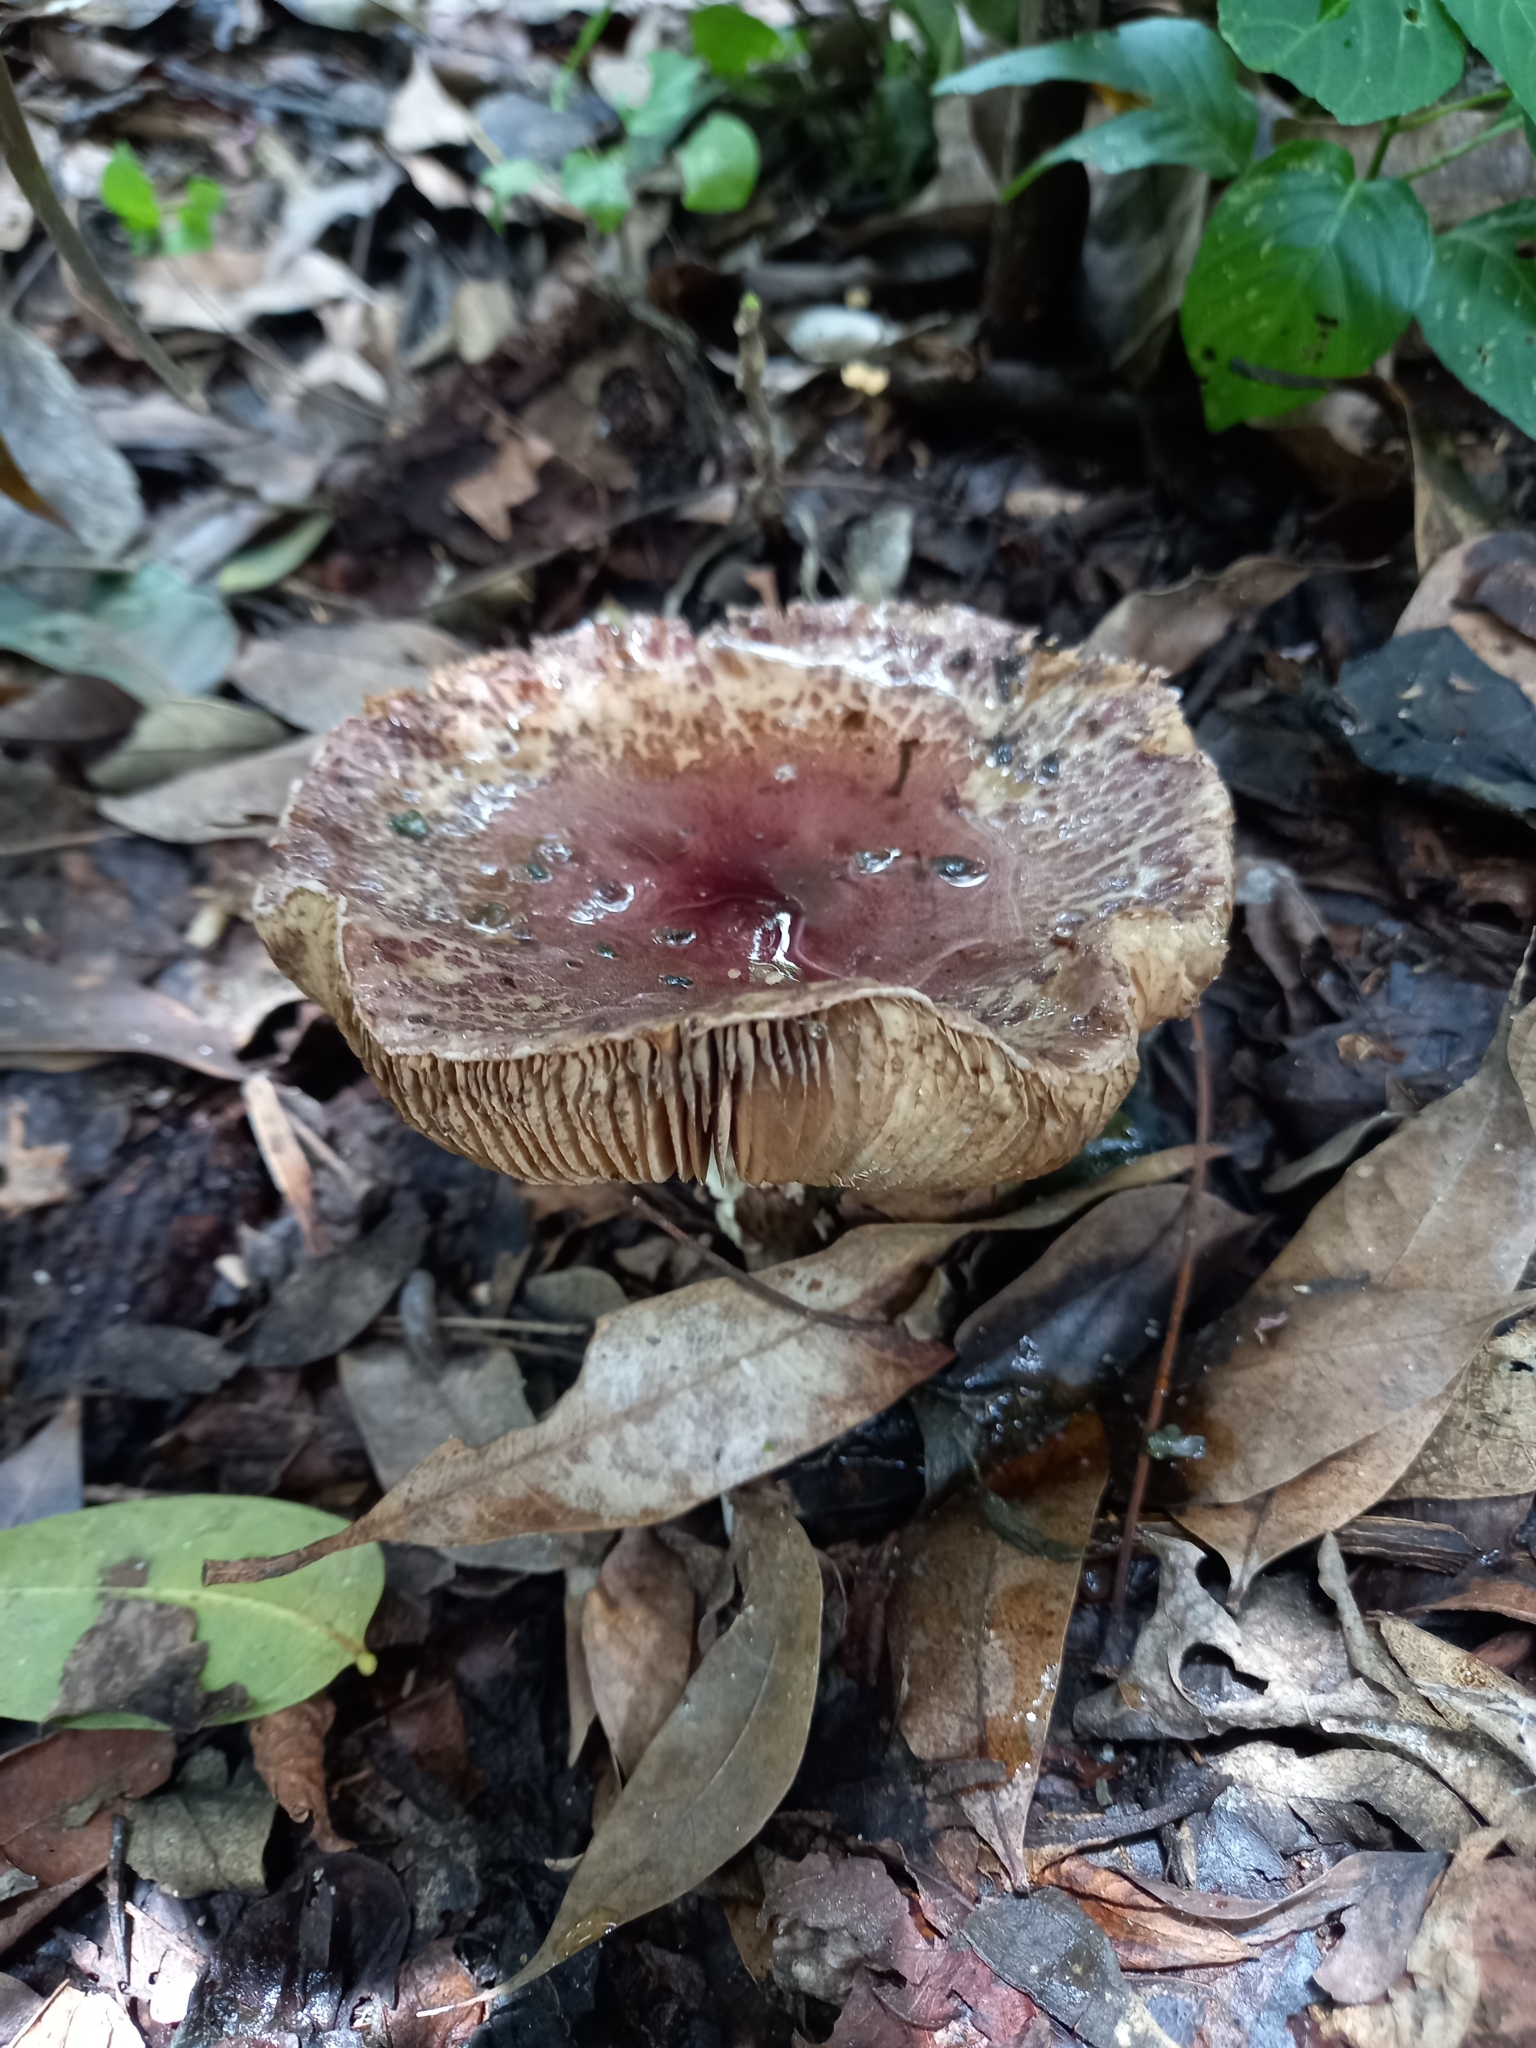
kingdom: Fungi
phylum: Basidiomycota
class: Agaricomycetes
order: Agaricales
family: Agaricaceae
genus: Leucoagaricus
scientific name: Leucoagaricus lilaceus
